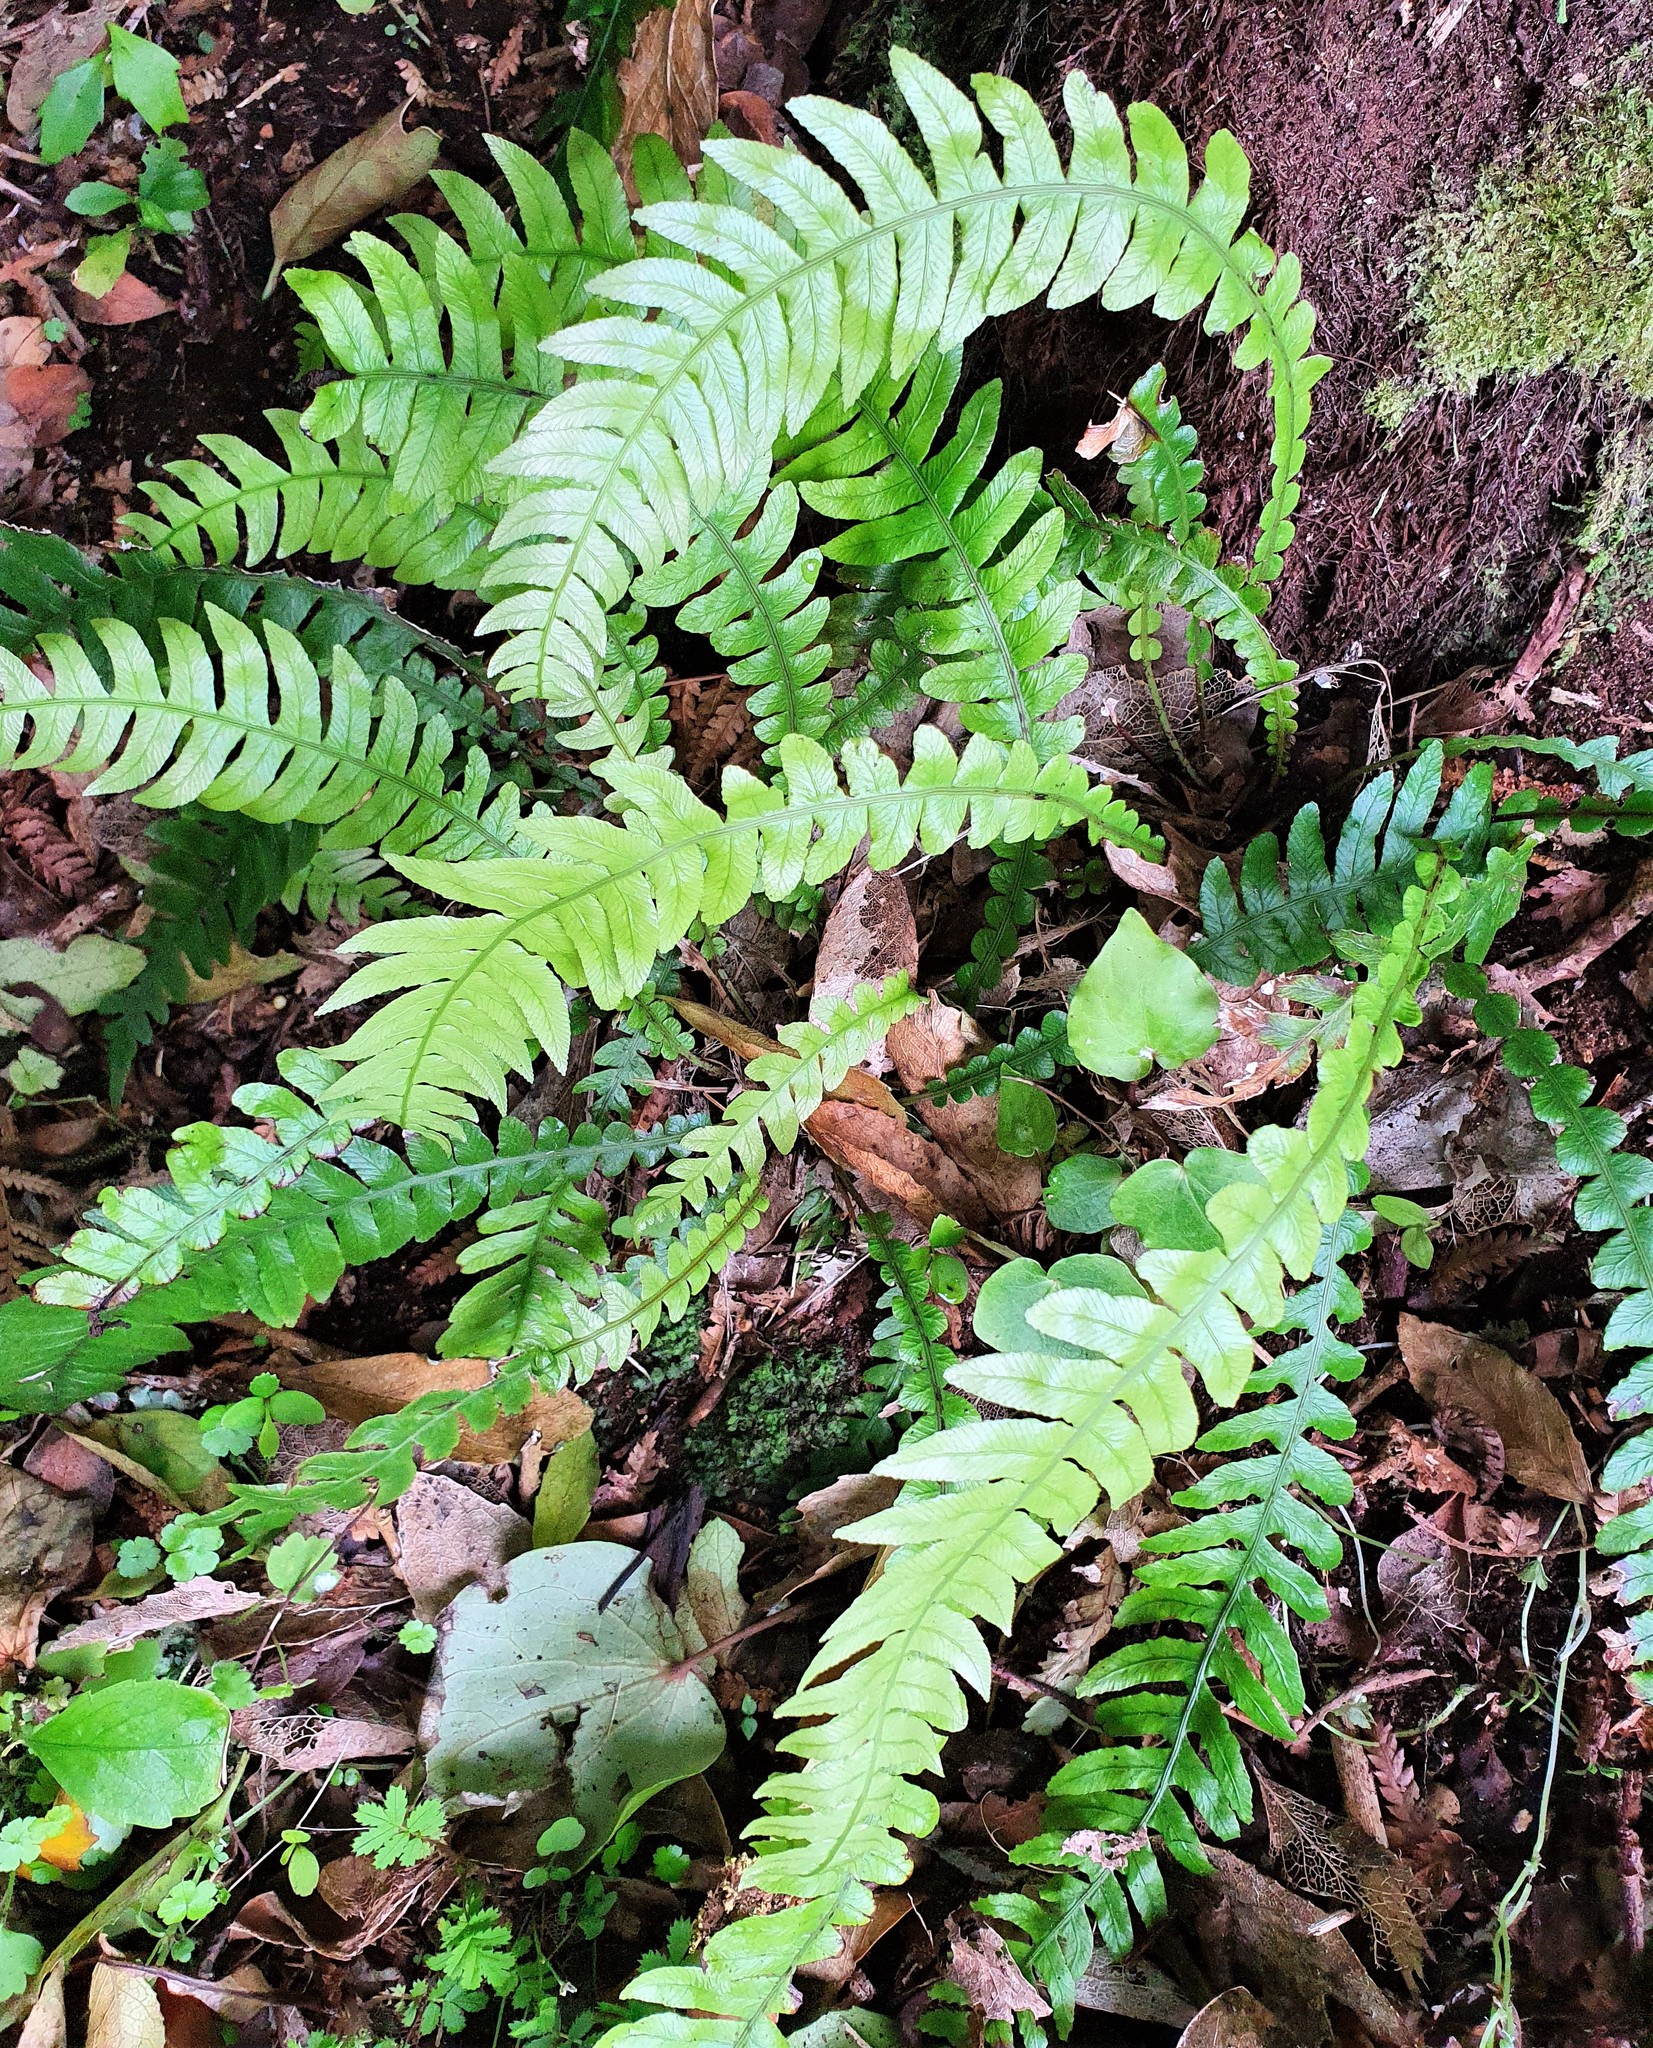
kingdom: Plantae
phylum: Tracheophyta
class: Polypodiopsida
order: Polypodiales
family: Blechnaceae
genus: Austroblechnum
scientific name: Austroblechnum lanceolatum
